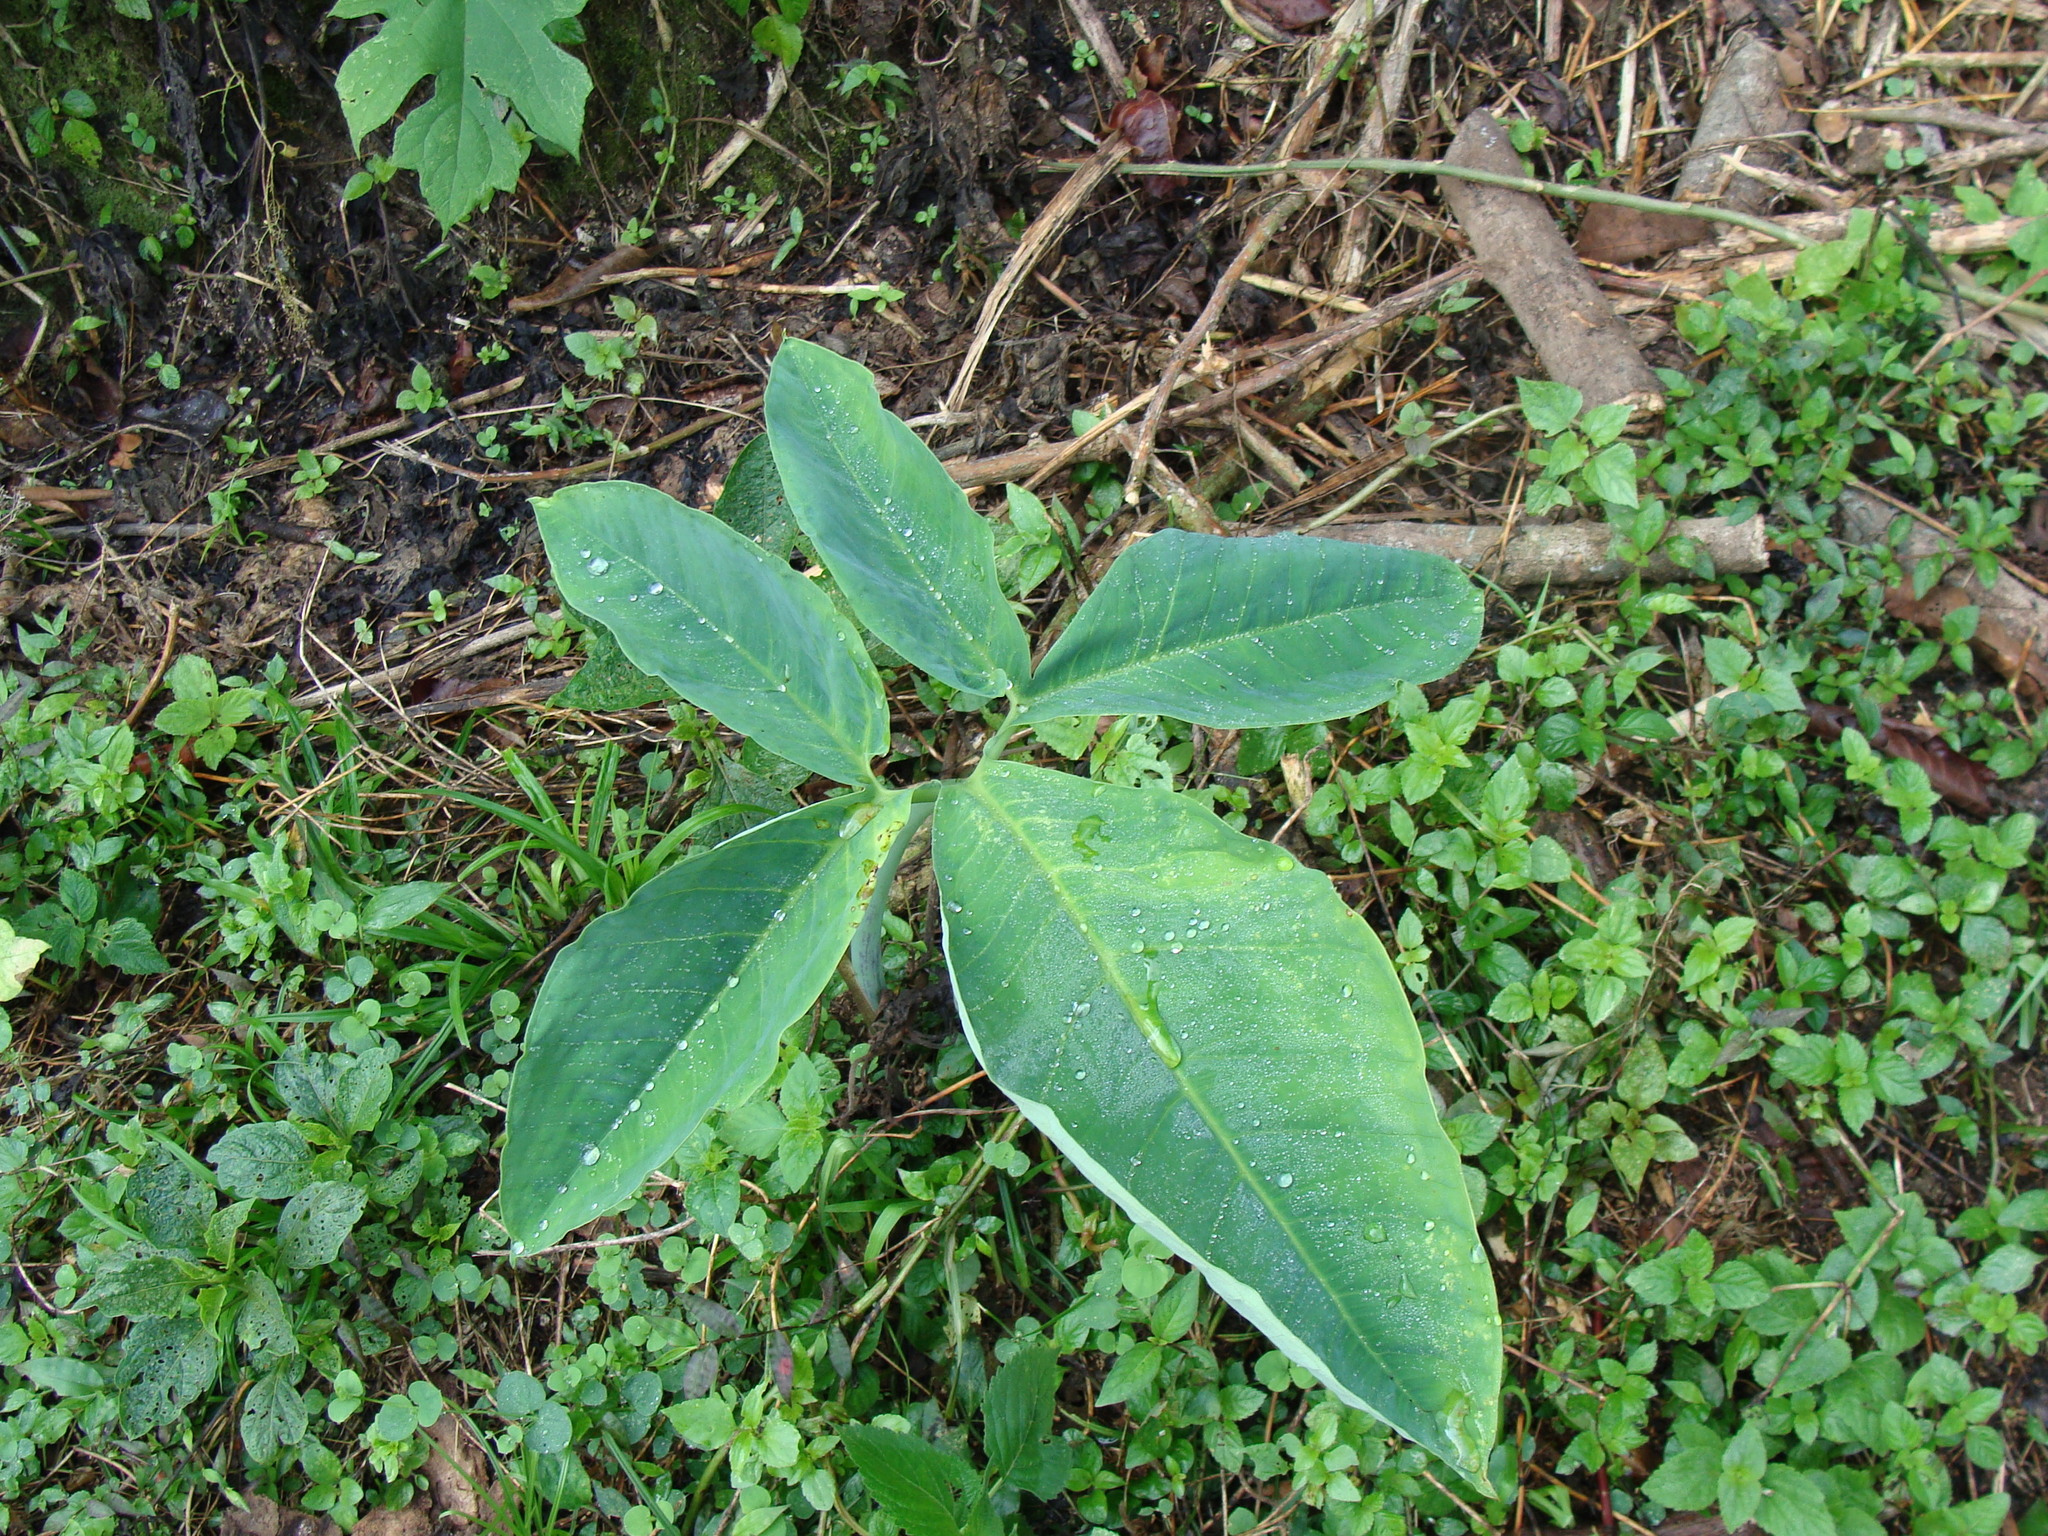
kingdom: Plantae
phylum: Tracheophyta
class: Liliopsida
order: Alismatales
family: Araceae
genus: Xanthosoma
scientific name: Xanthosoma wendlandii
